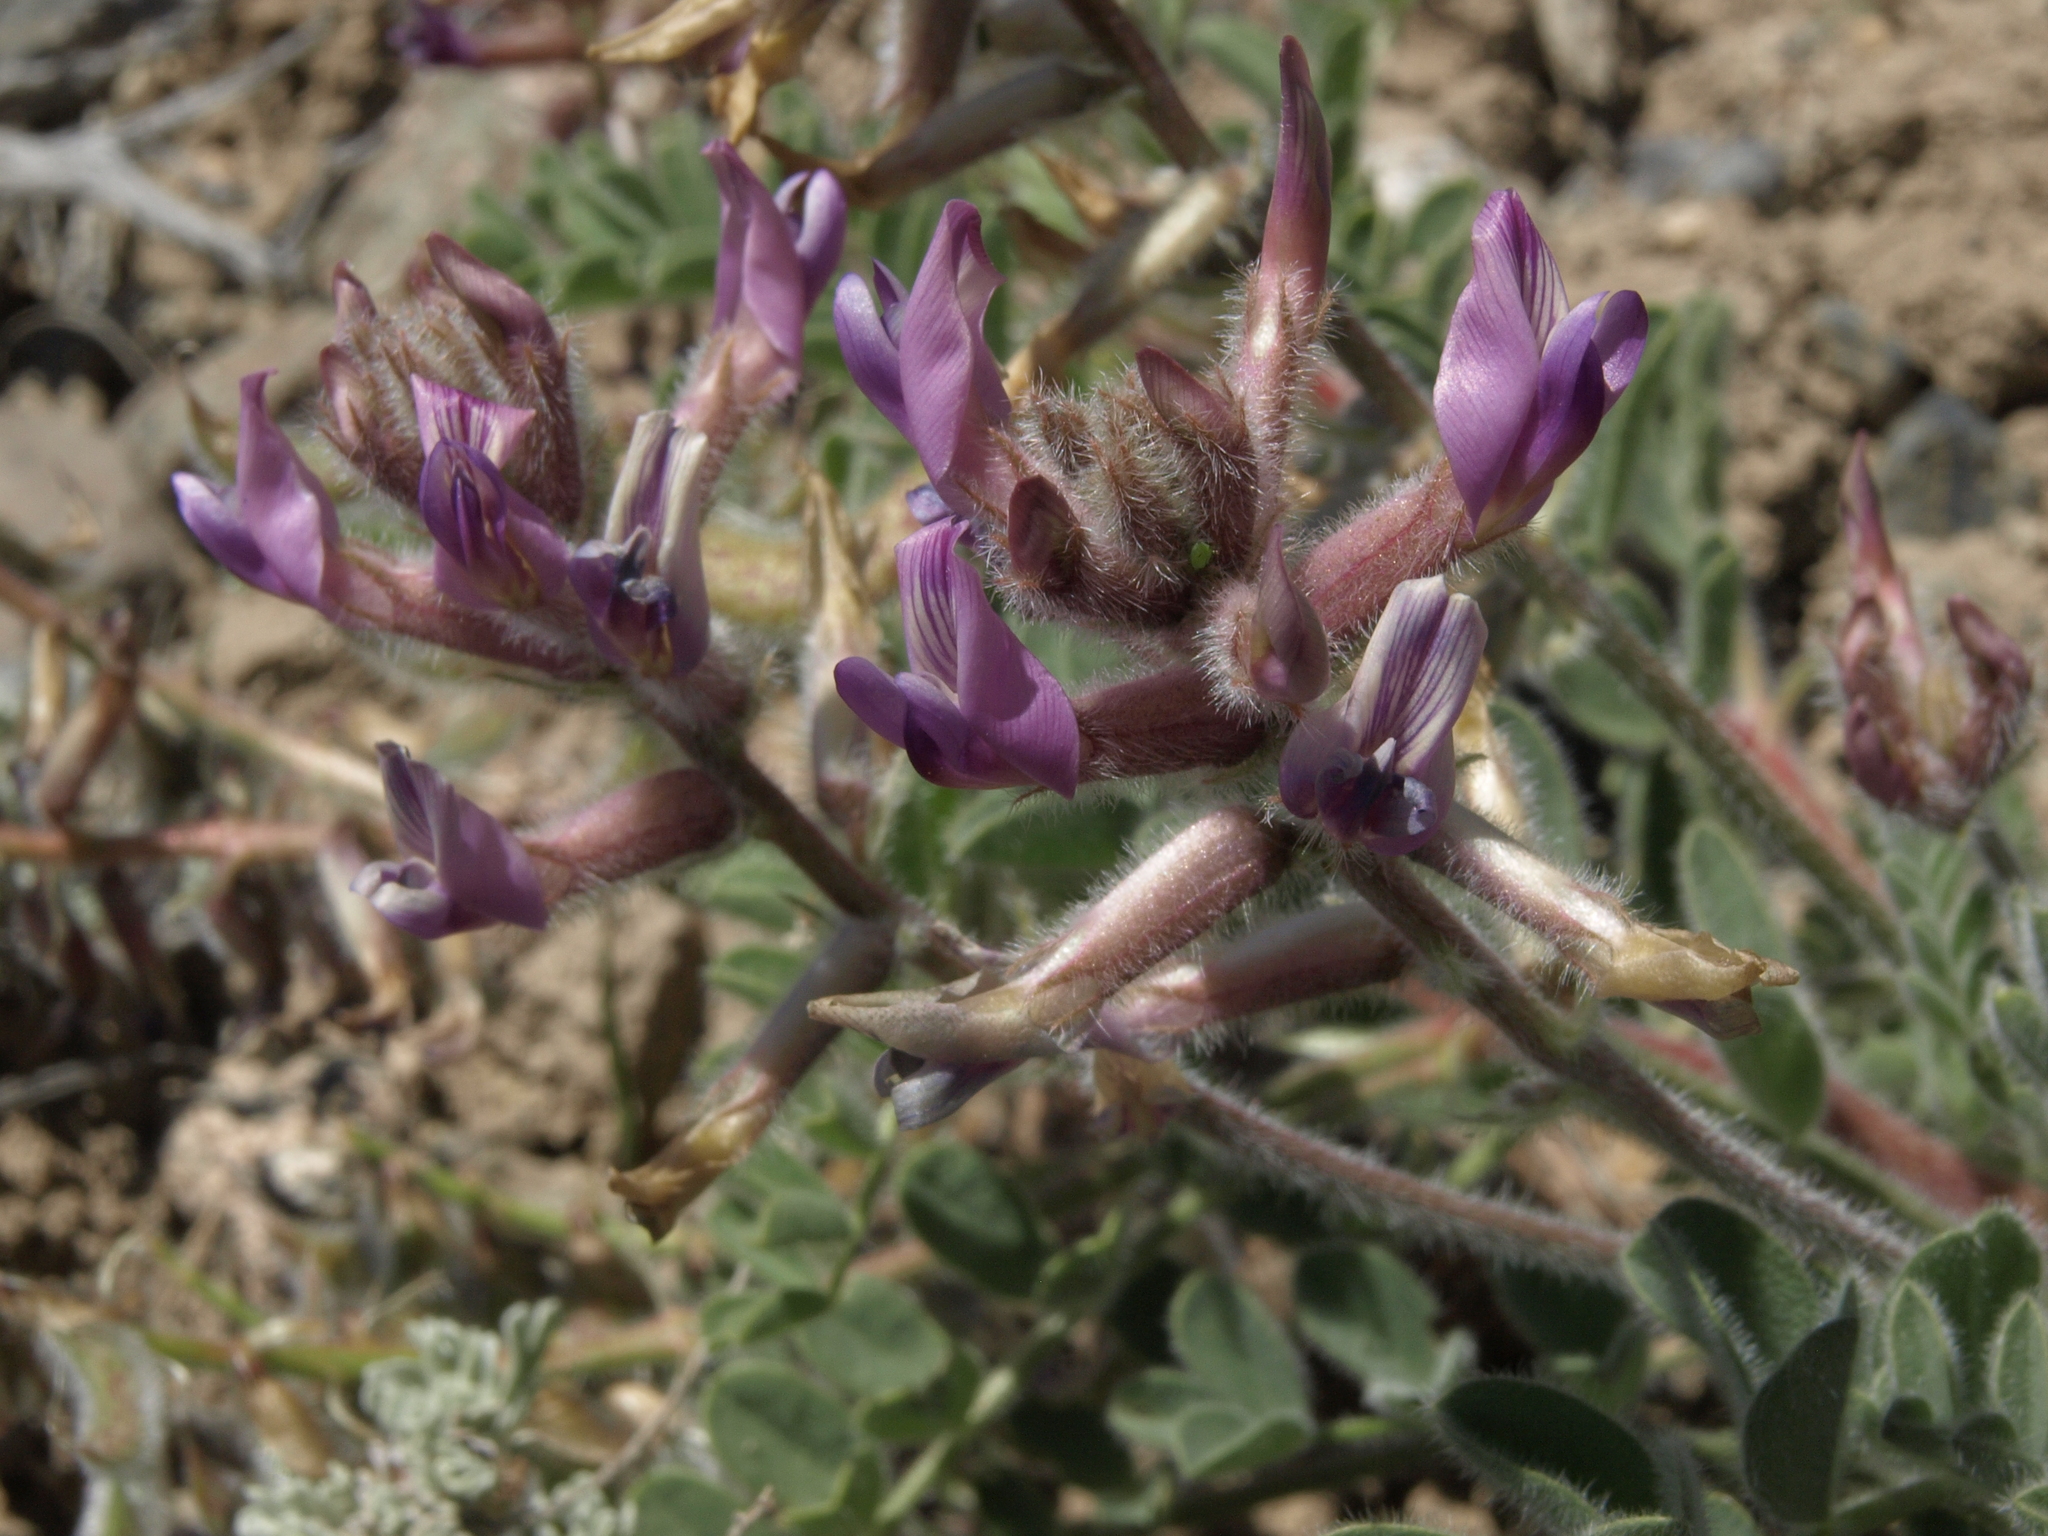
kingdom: Plantae
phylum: Tracheophyta
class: Magnoliopsida
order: Fabales
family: Fabaceae
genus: Astragalus
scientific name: Astragalus malacus
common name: Shaggy milk-vetch
